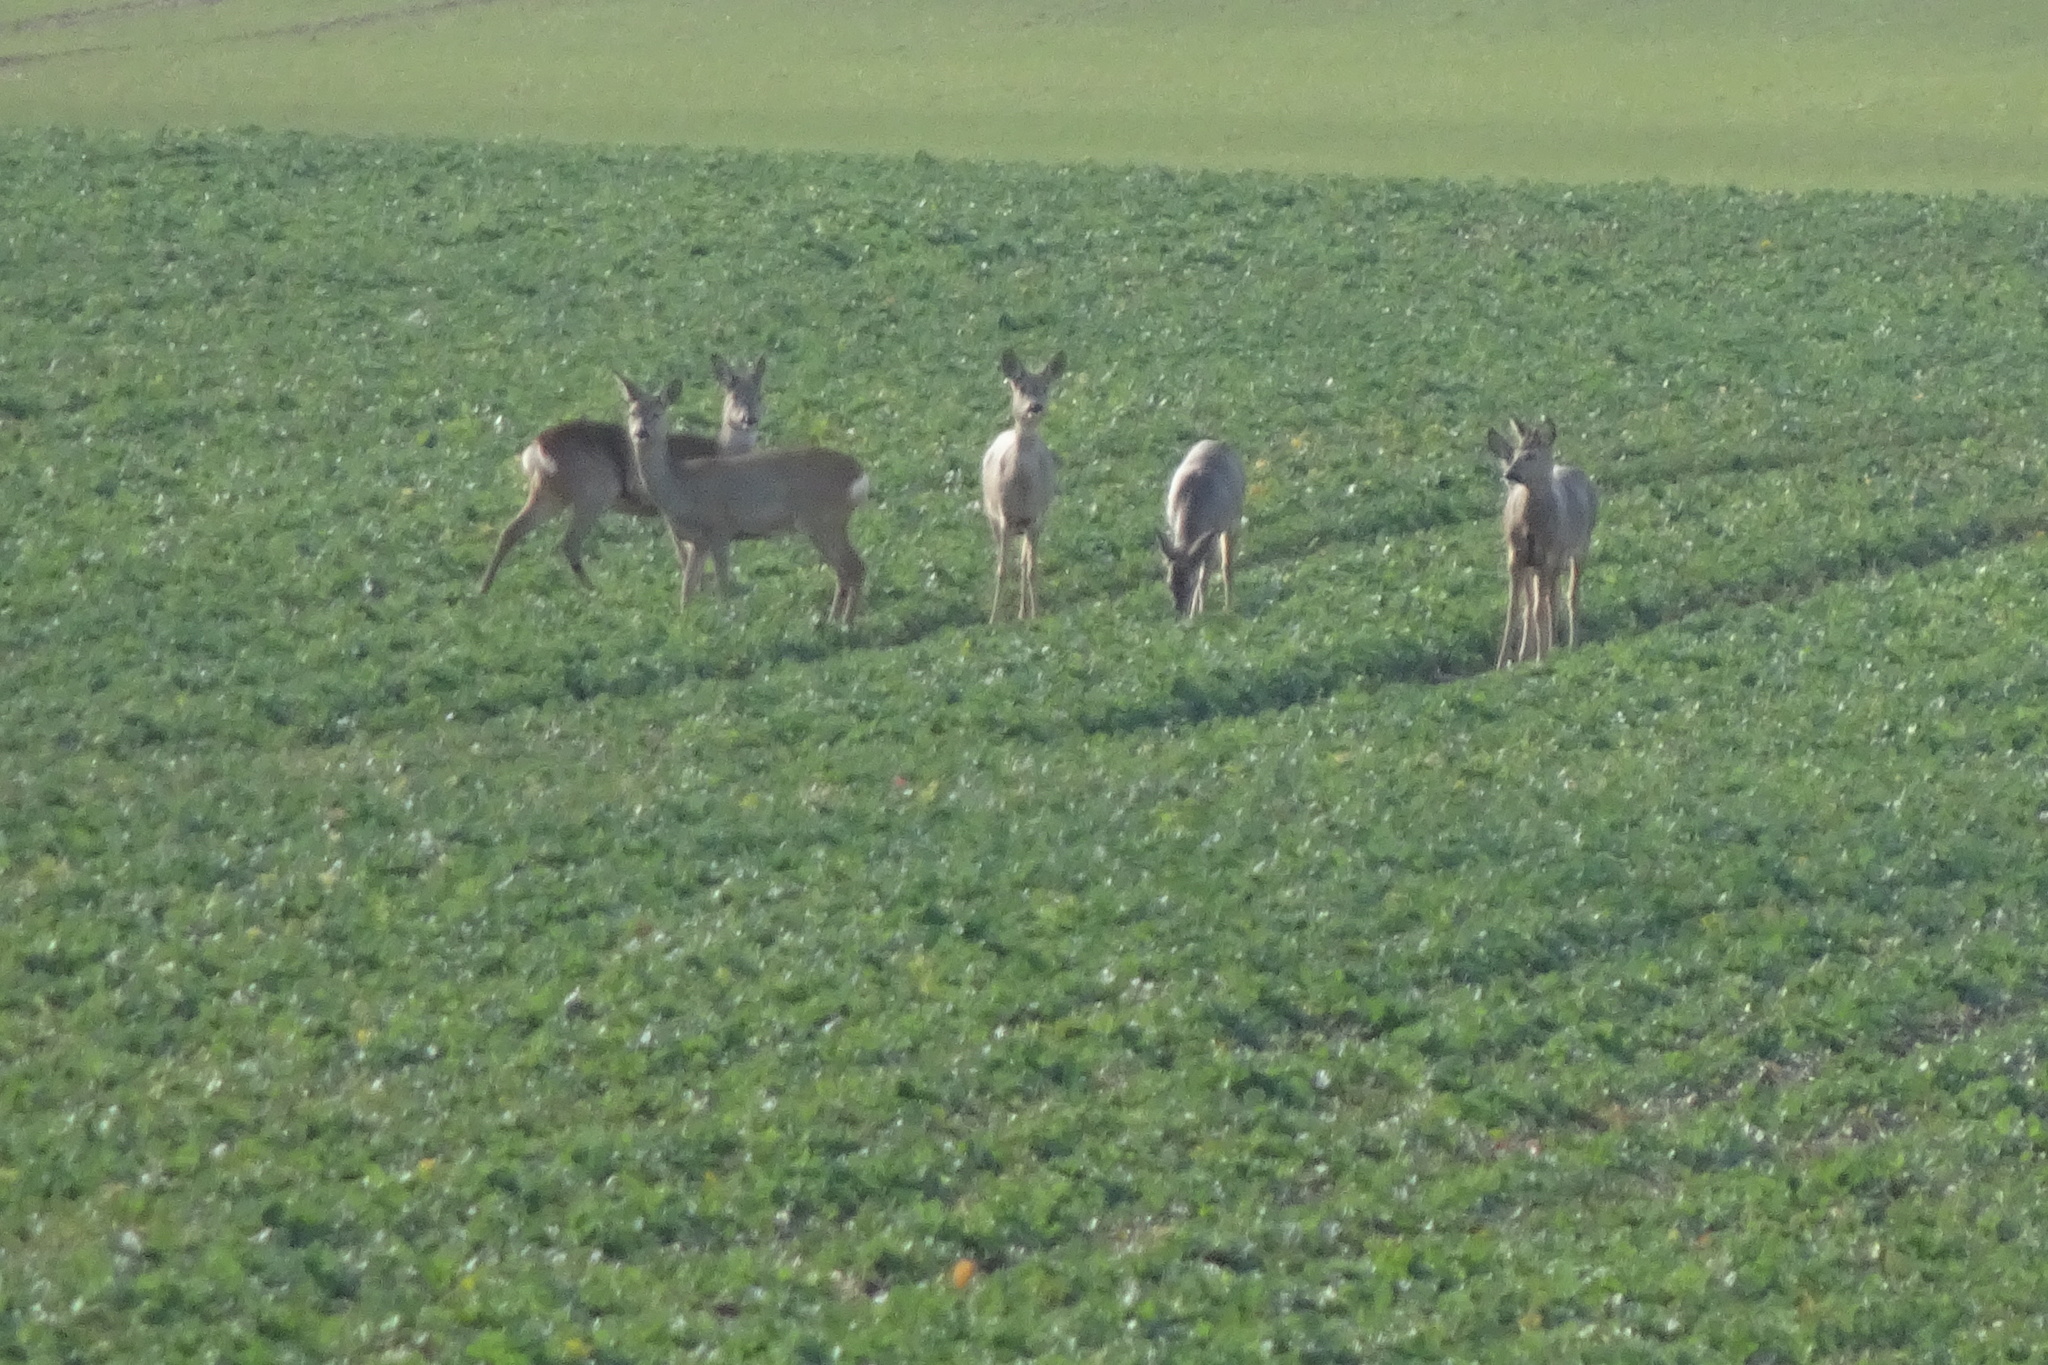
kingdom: Animalia
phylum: Chordata
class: Mammalia
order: Artiodactyla
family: Cervidae
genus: Capreolus
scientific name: Capreolus capreolus
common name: Western roe deer
